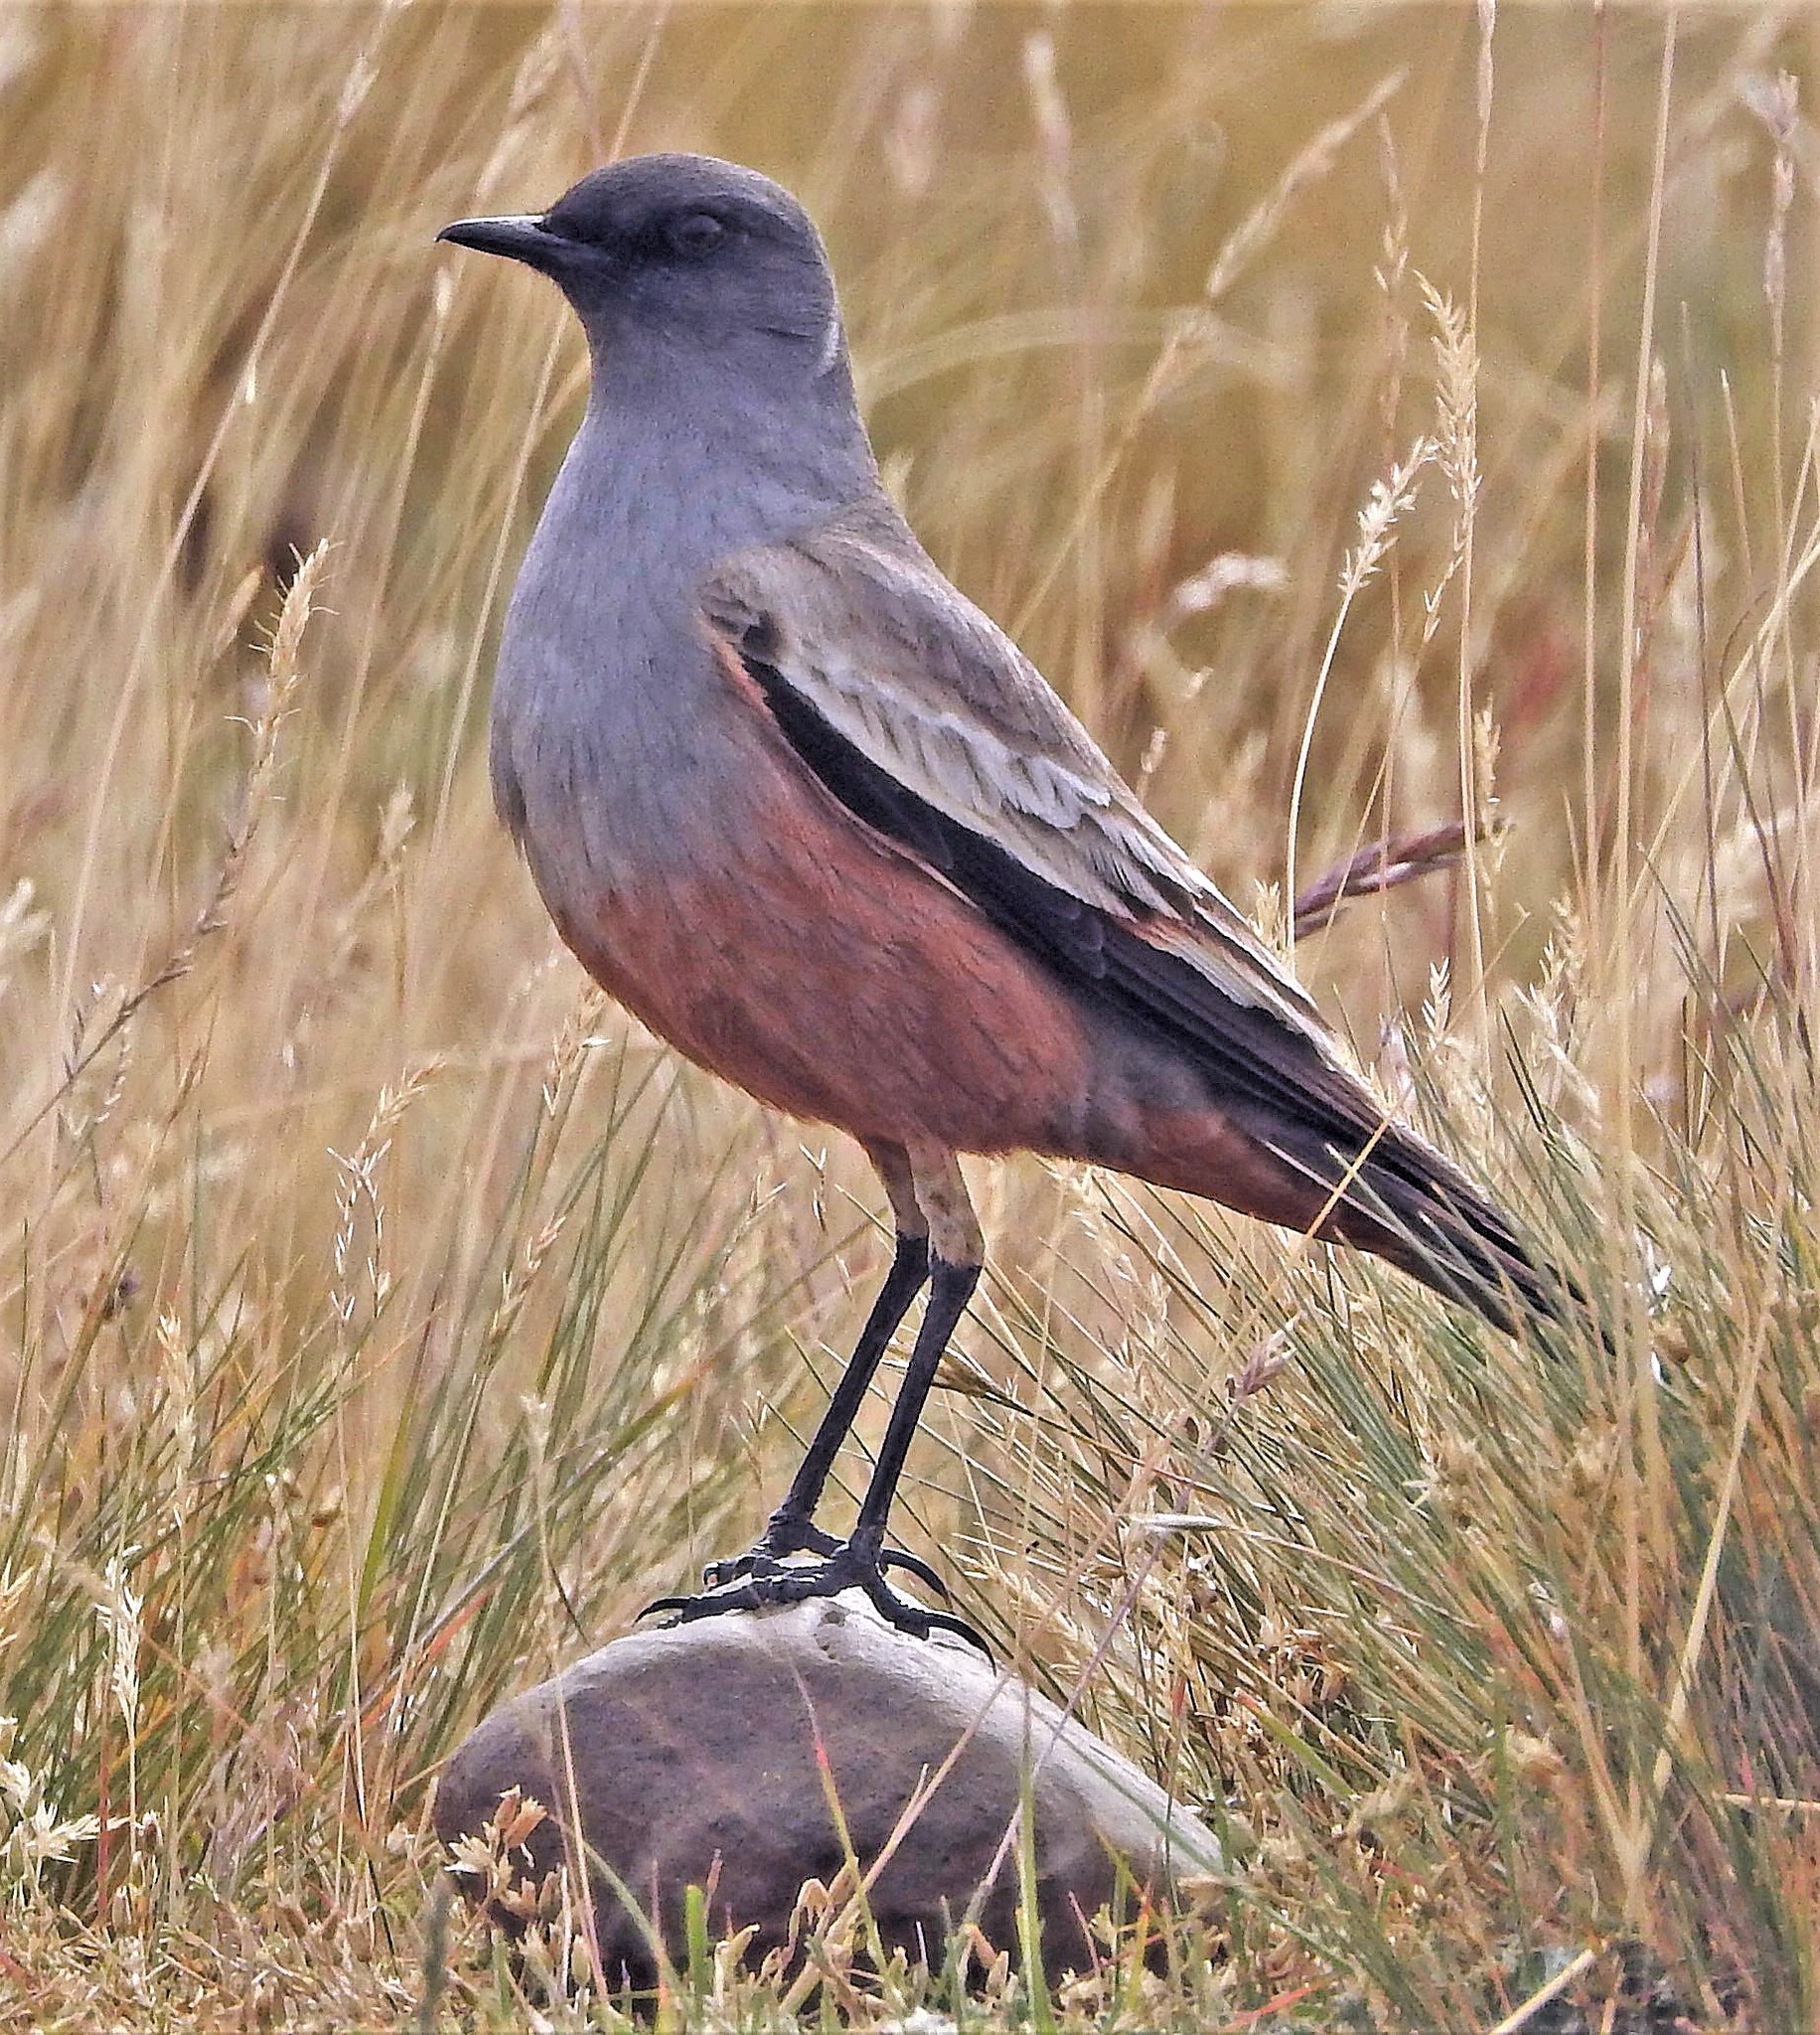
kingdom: Animalia
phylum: Chordata
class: Aves
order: Passeriformes
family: Tyrannidae
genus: Neoxolmis
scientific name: Neoxolmis rufiventris
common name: Chocolate-vented tyrant
